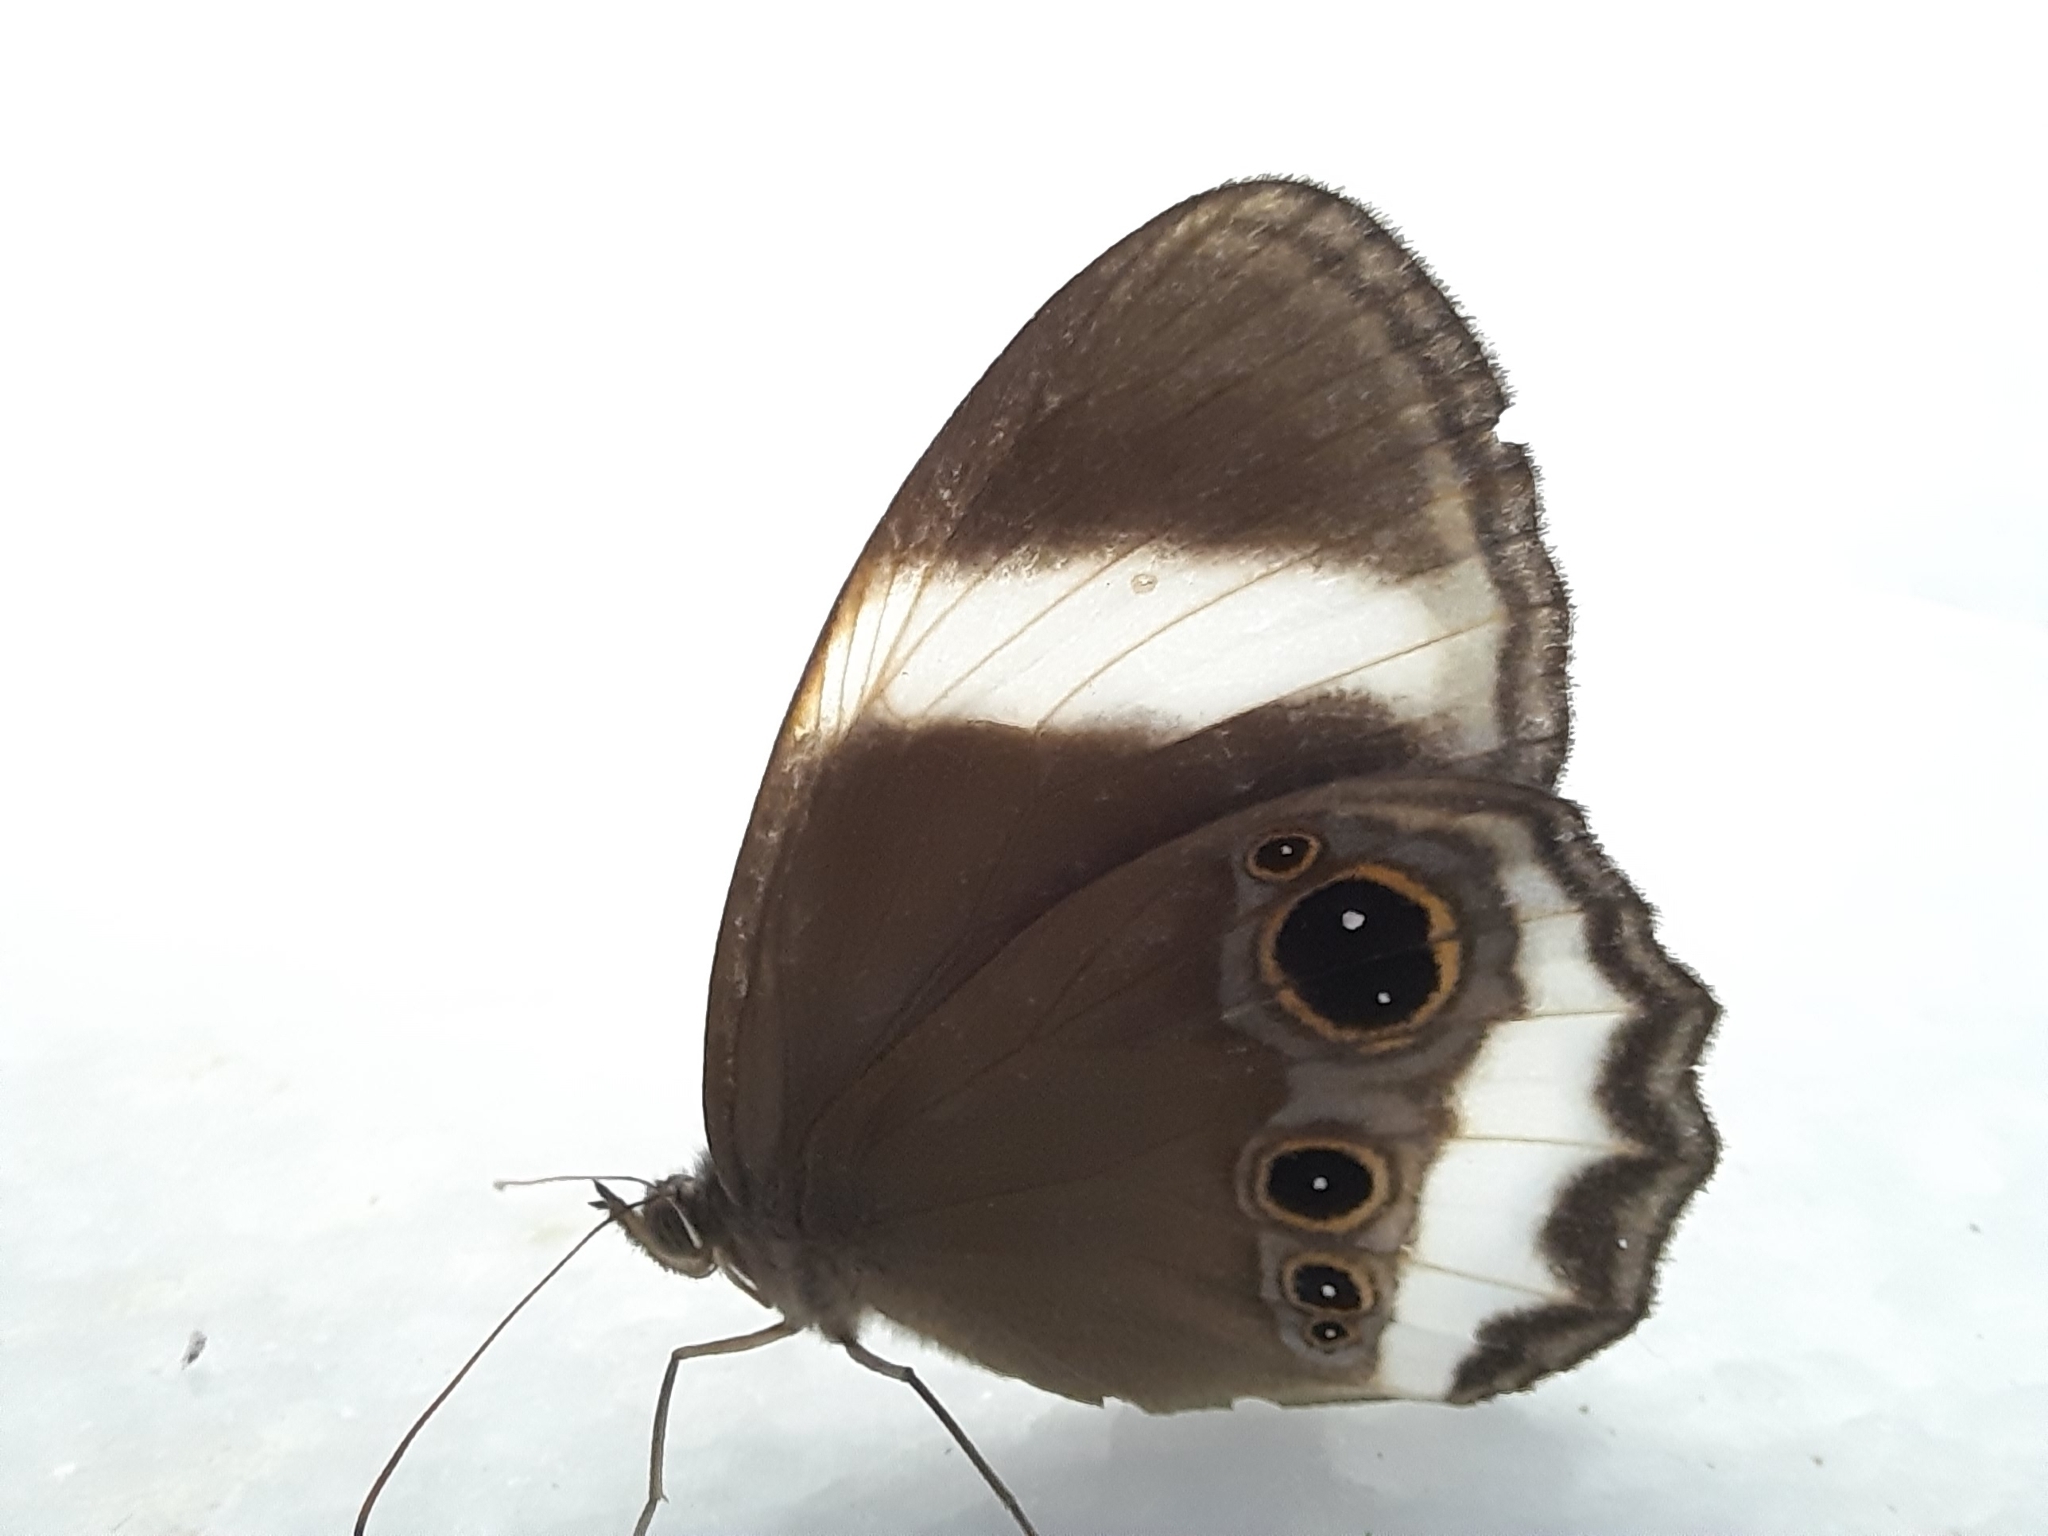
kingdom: Animalia
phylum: Arthropoda
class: Insecta
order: Lepidoptera
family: Nymphalidae
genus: Zipaetis
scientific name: Zipaetis saitis
